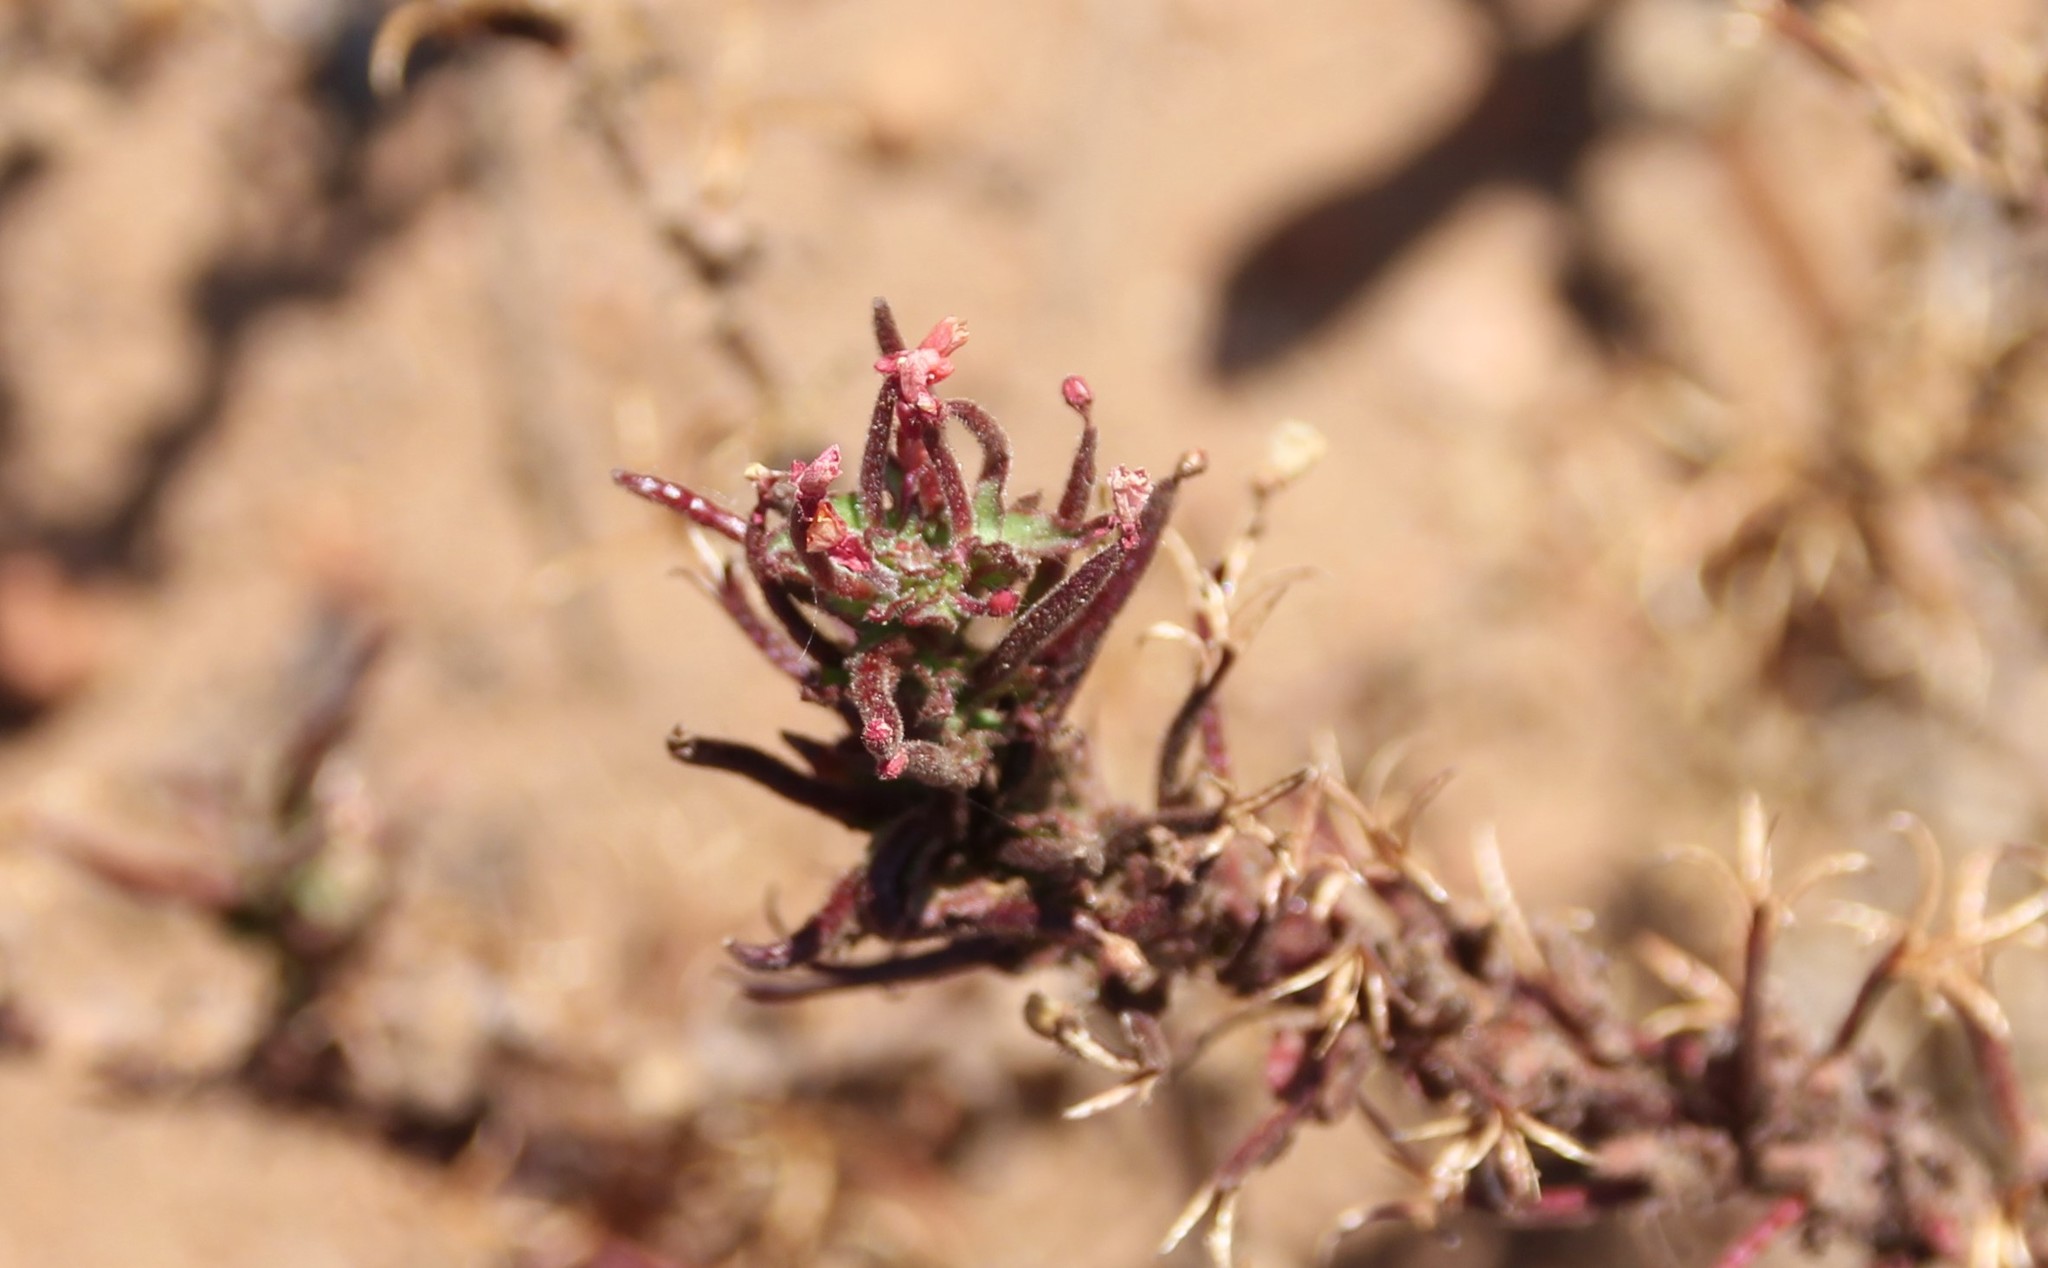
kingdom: Plantae
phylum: Tracheophyta
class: Magnoliopsida
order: Myrtales
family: Onagraceae
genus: Camissoniopsis
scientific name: Camissoniopsis hirtella
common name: Santa cruz island suncup
